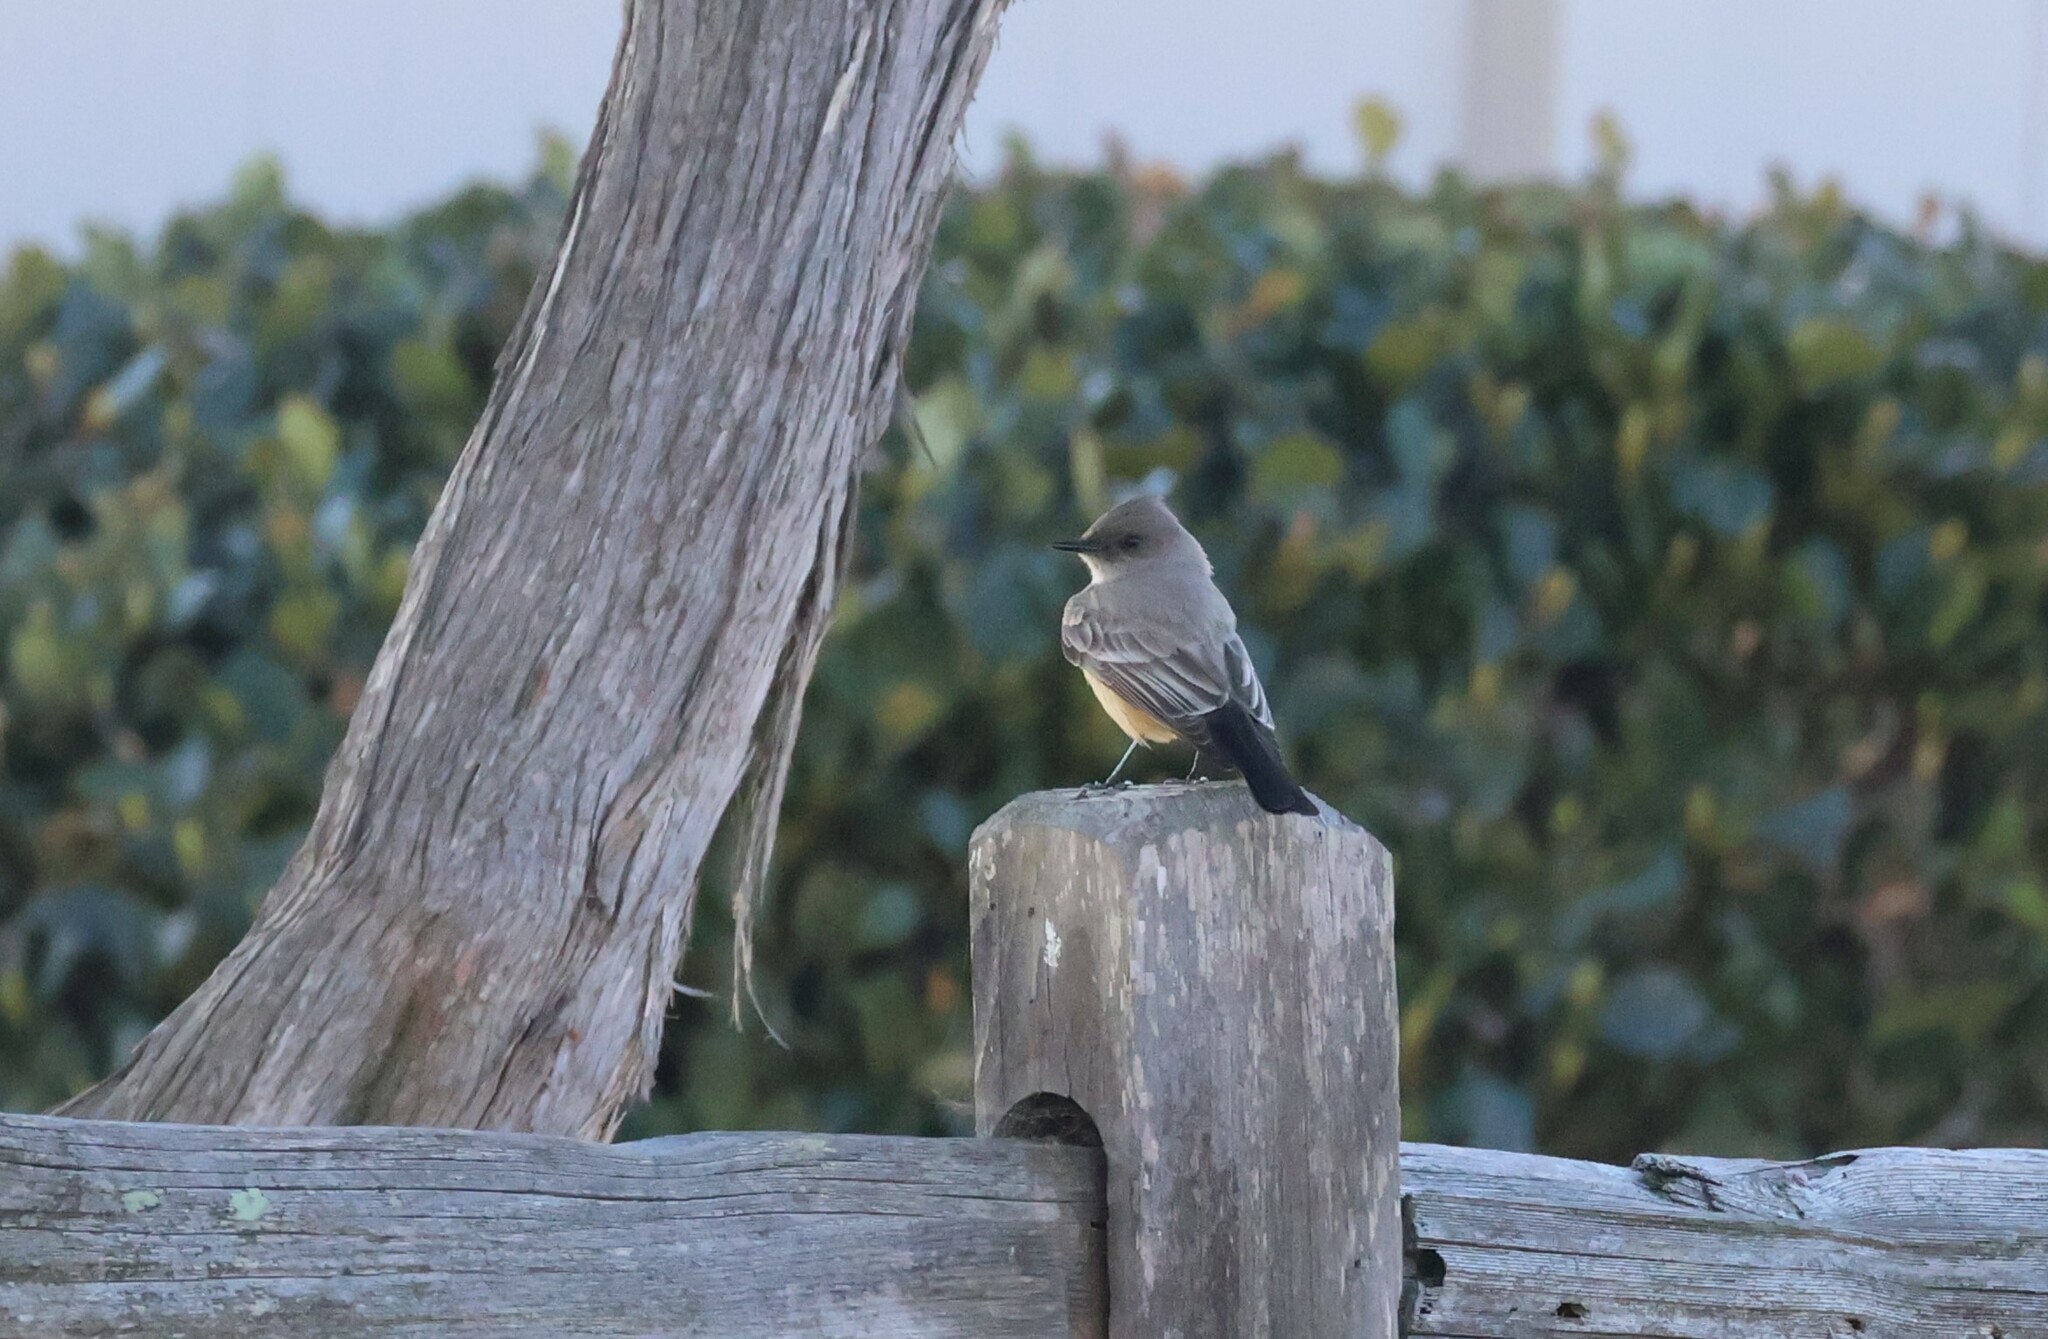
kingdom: Animalia
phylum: Chordata
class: Aves
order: Passeriformes
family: Tyrannidae
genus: Sayornis
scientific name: Sayornis saya
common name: Say's phoebe
